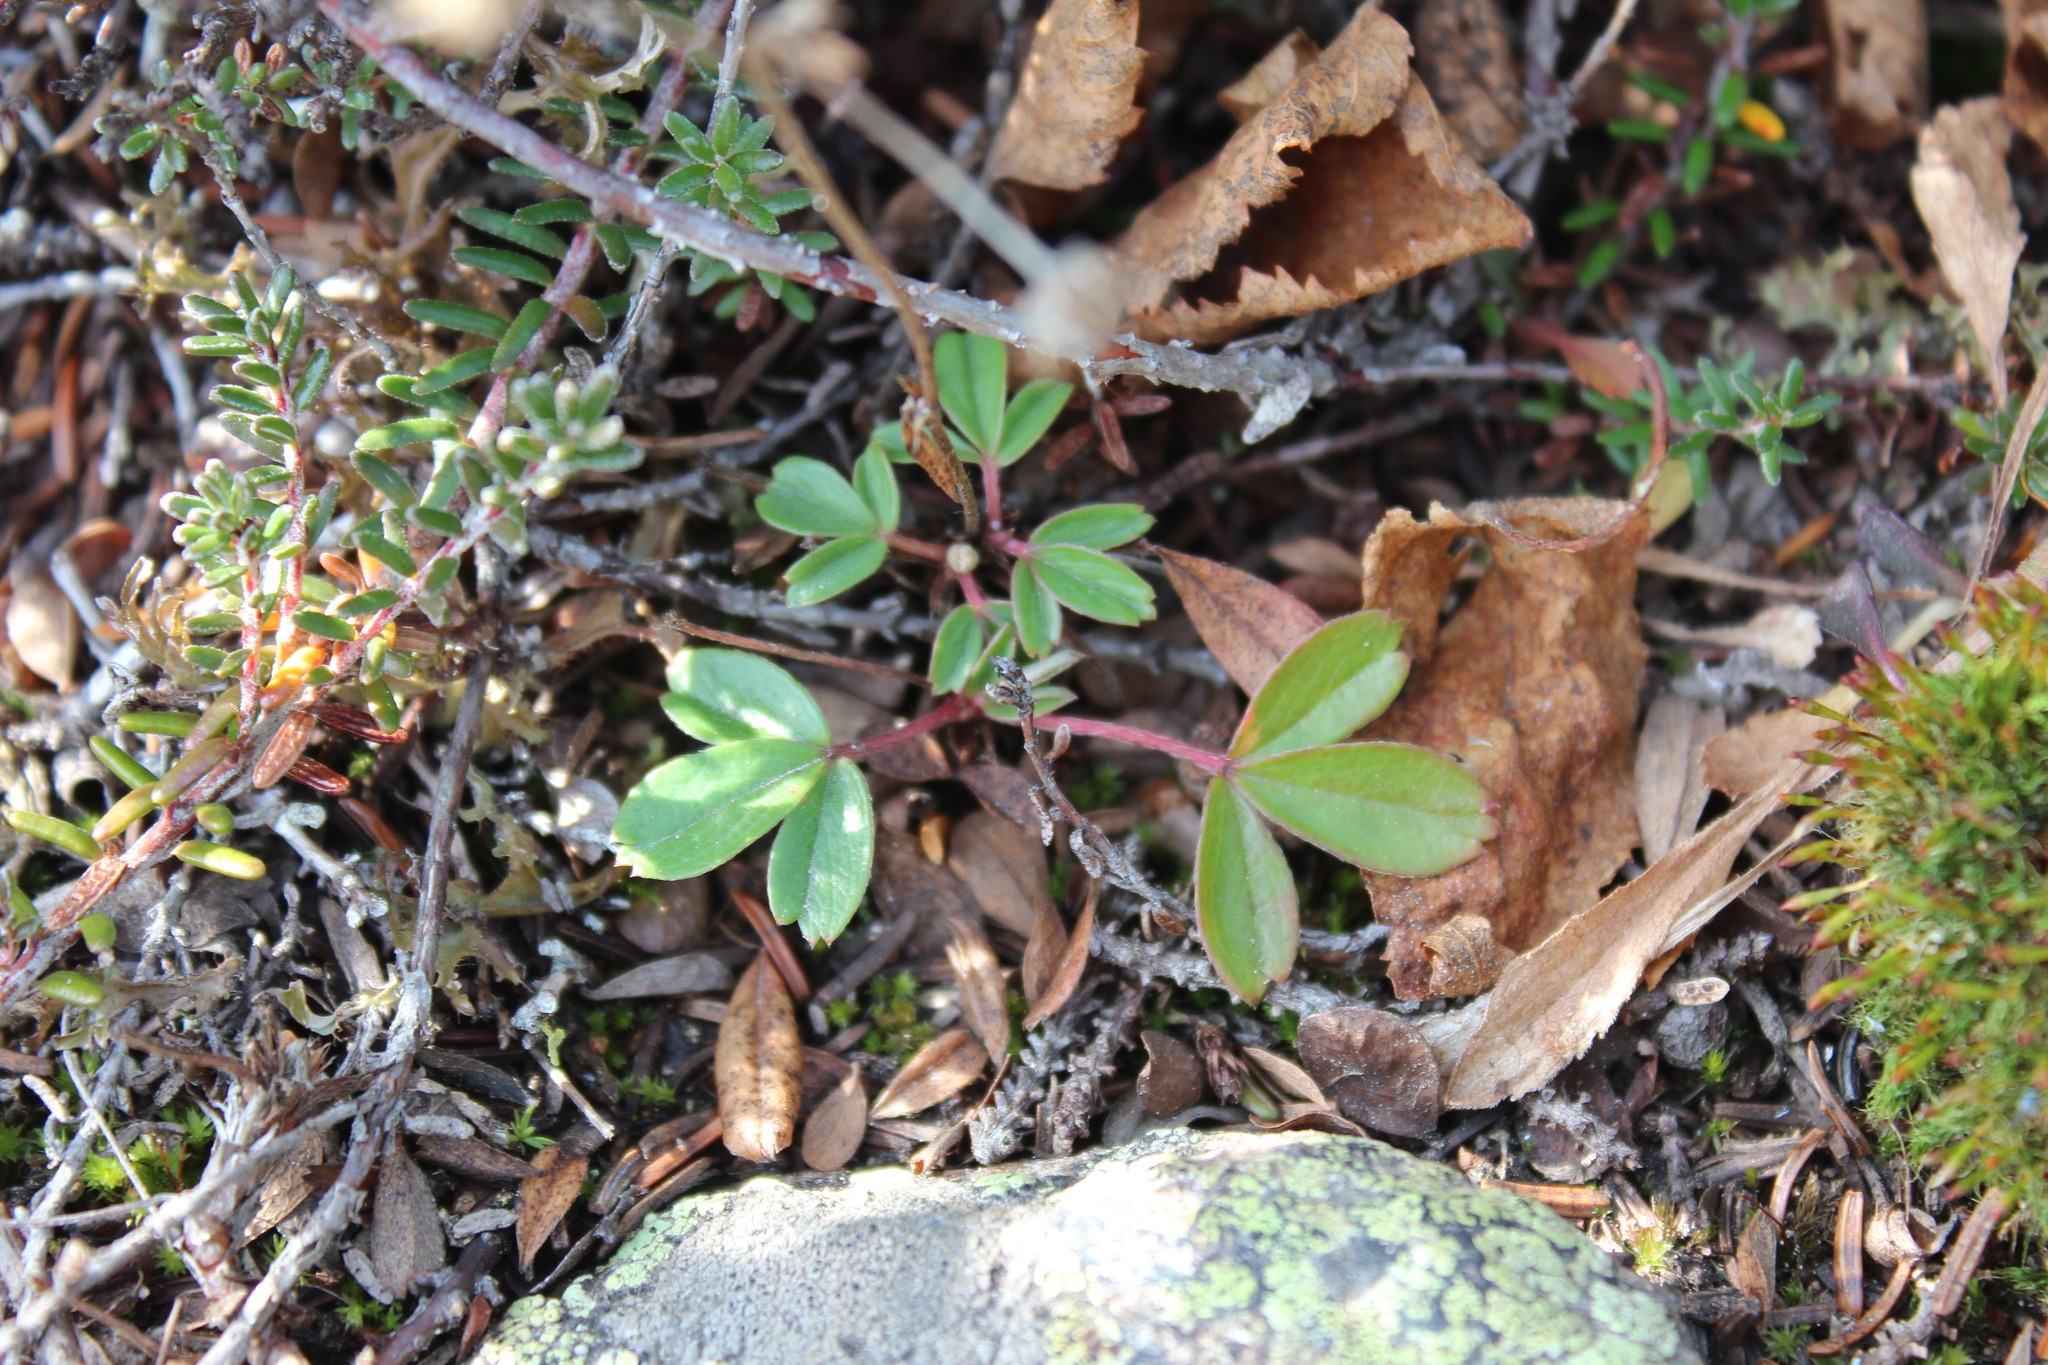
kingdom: Plantae
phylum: Tracheophyta
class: Magnoliopsida
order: Rosales
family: Rosaceae
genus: Sibbaldia
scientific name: Sibbaldia tridentata
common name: Three-toothed cinquefoil
